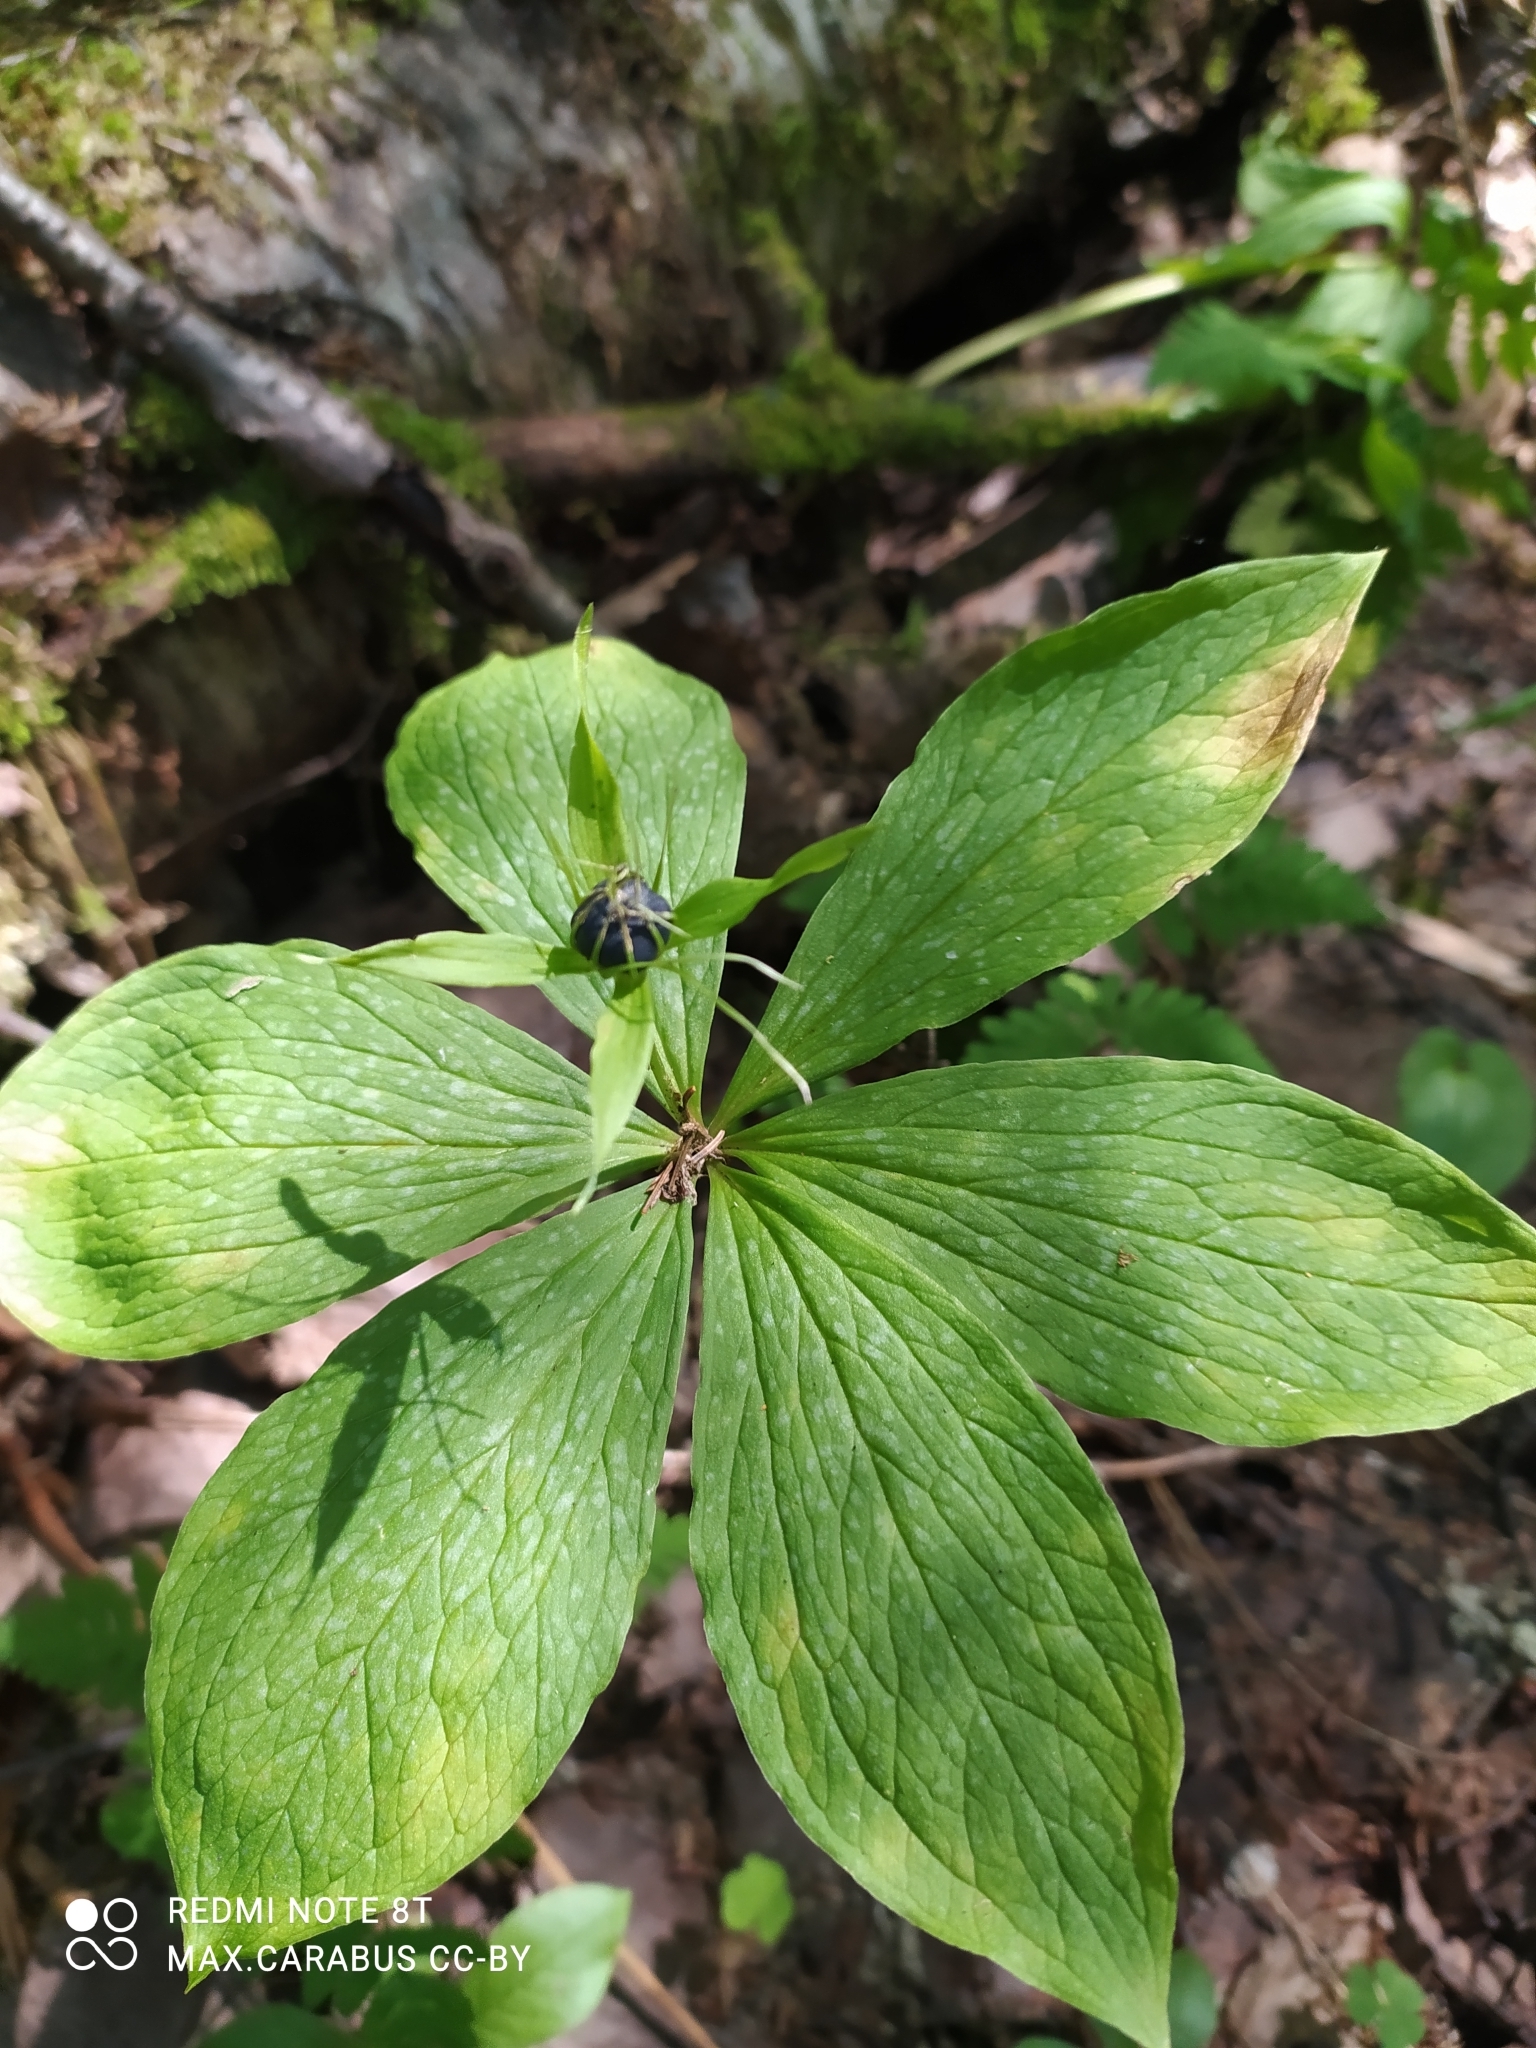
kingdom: Plantae
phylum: Tracheophyta
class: Liliopsida
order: Liliales
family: Melanthiaceae
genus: Paris
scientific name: Paris quadrifolia
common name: Herb-paris
